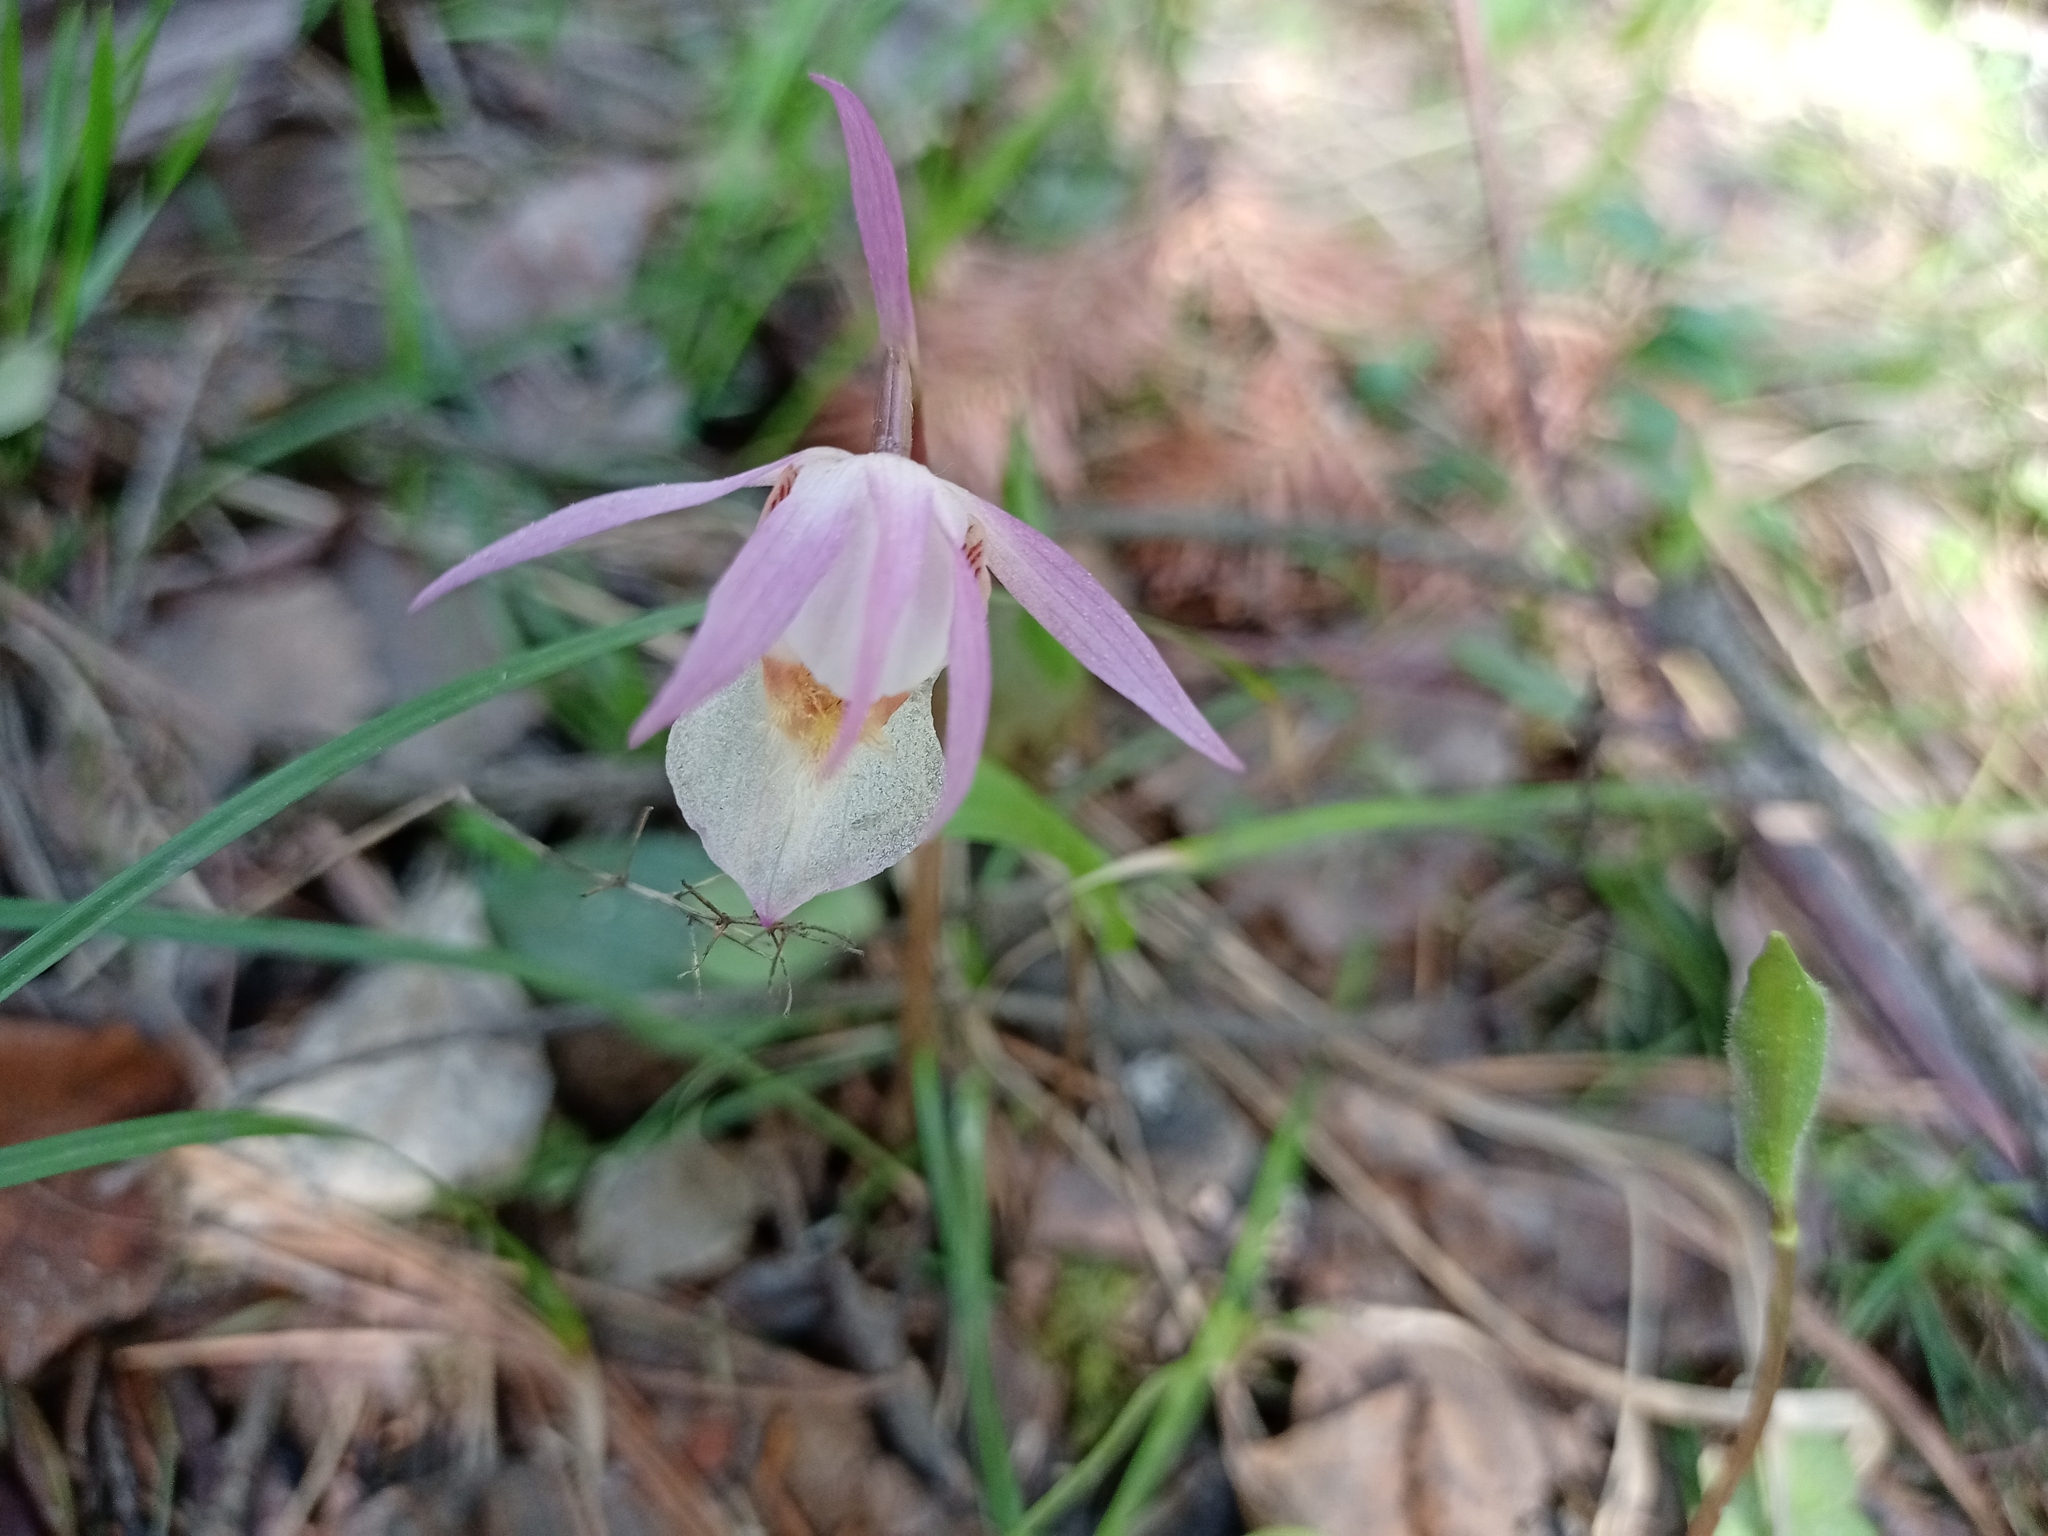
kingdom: Plantae
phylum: Tracheophyta
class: Liliopsida
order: Asparagales
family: Orchidaceae
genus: Calypso
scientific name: Calypso bulbosa
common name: Calypso
